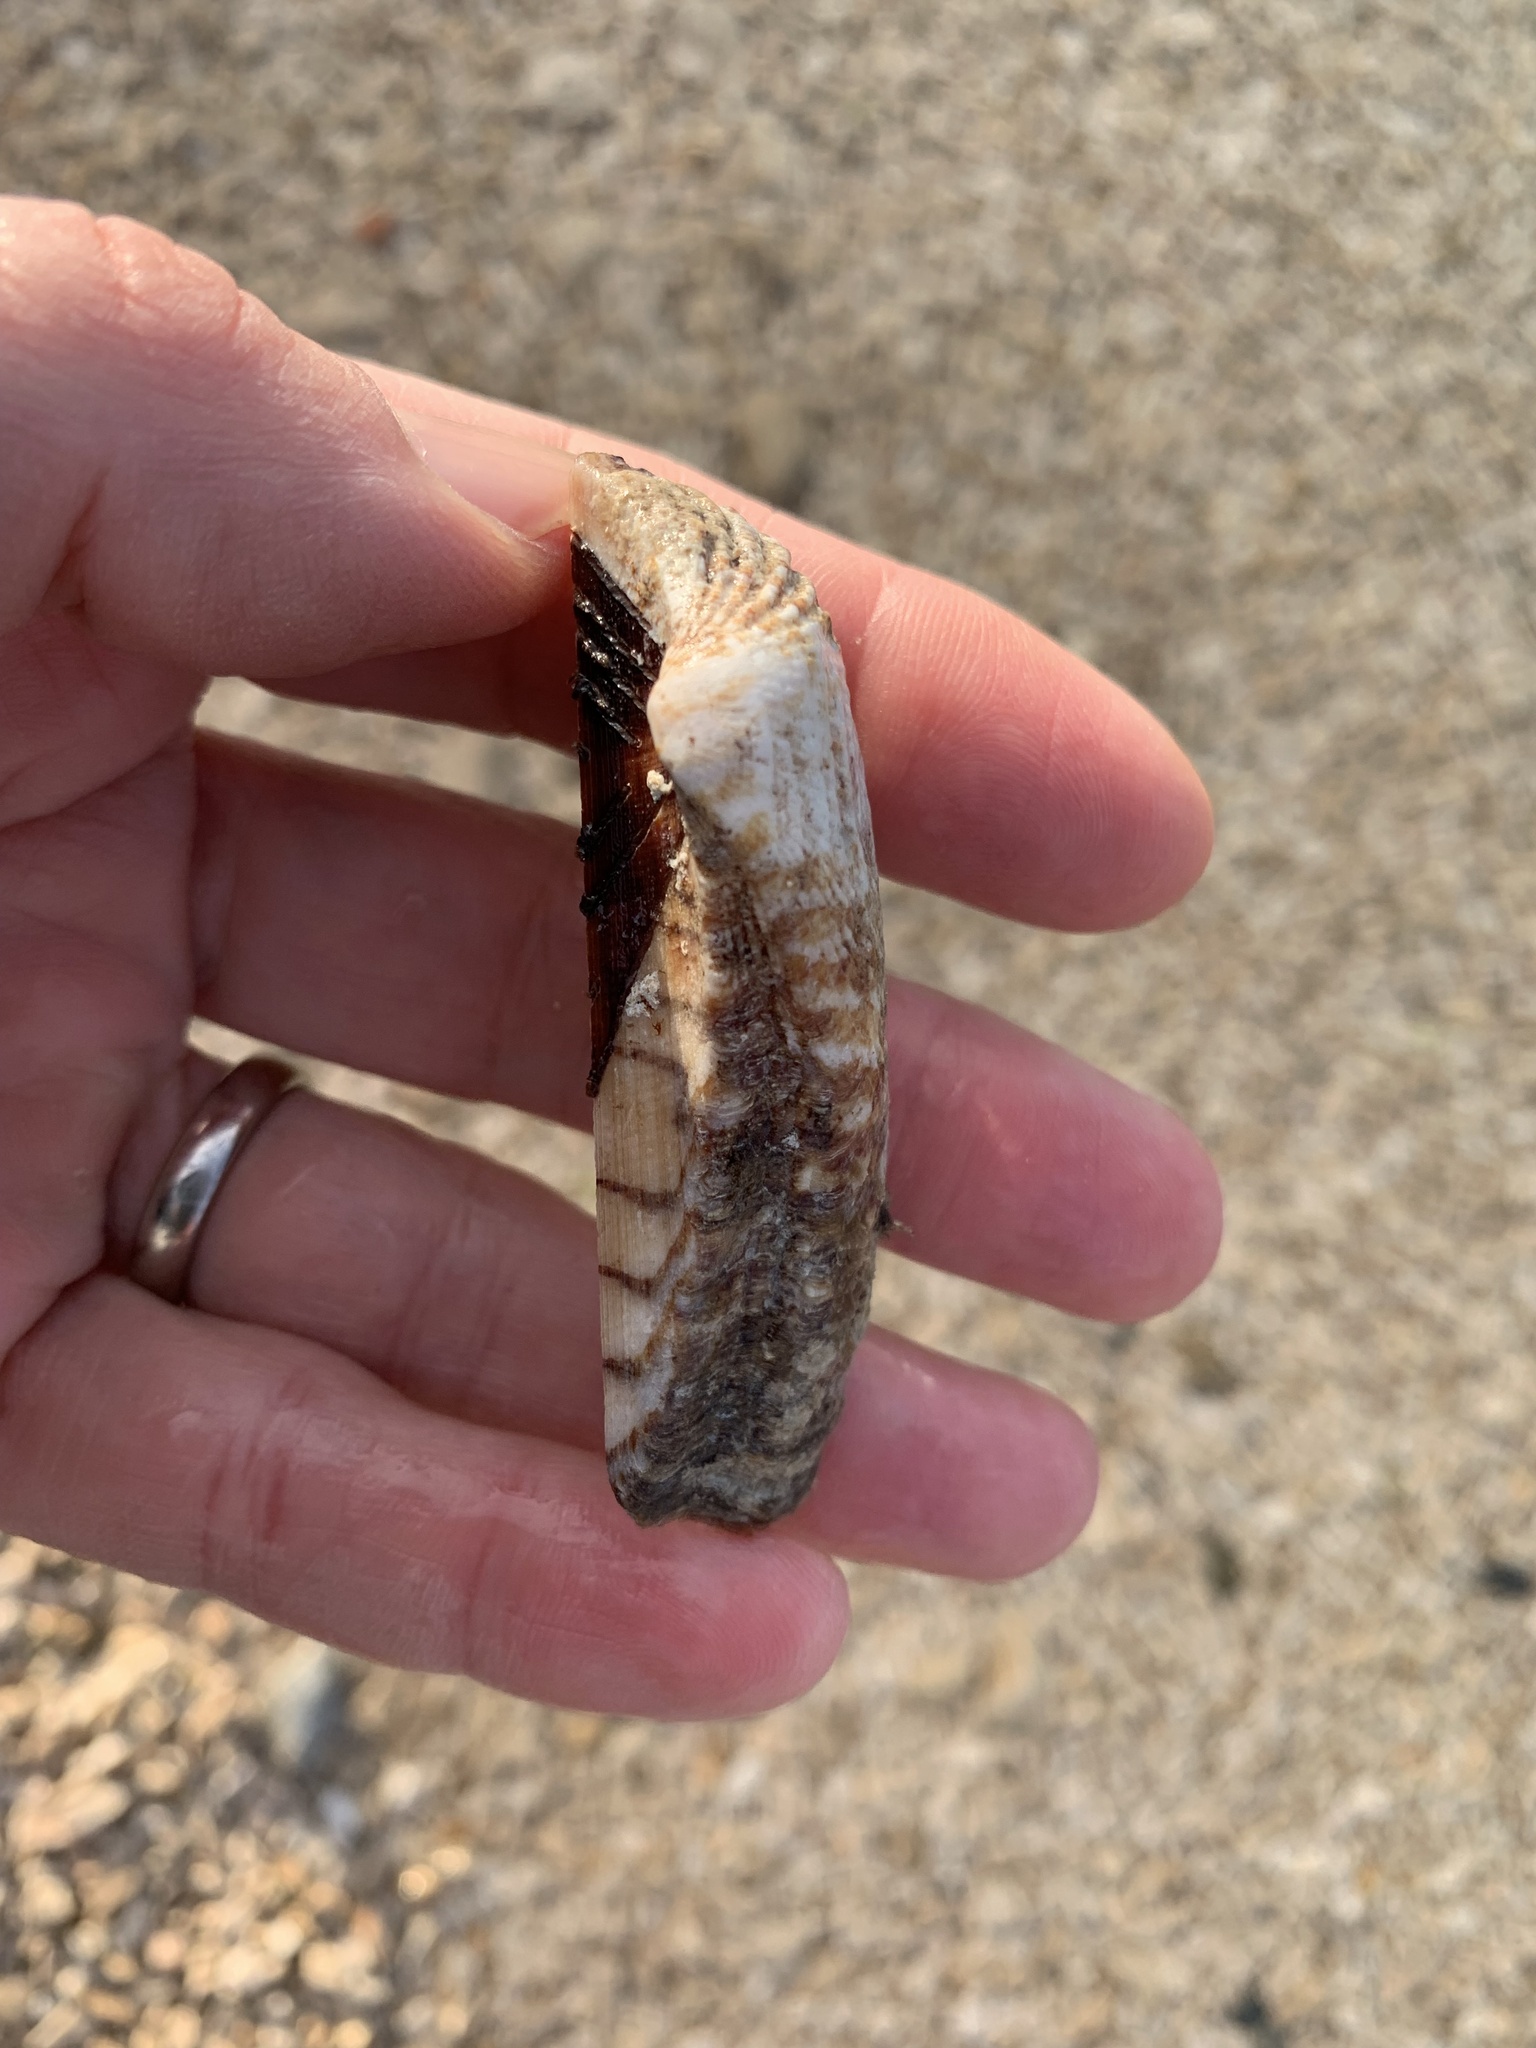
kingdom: Animalia
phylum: Mollusca
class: Bivalvia
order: Arcida
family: Arcidae
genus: Arca
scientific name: Arca noae
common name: Noah's arch
